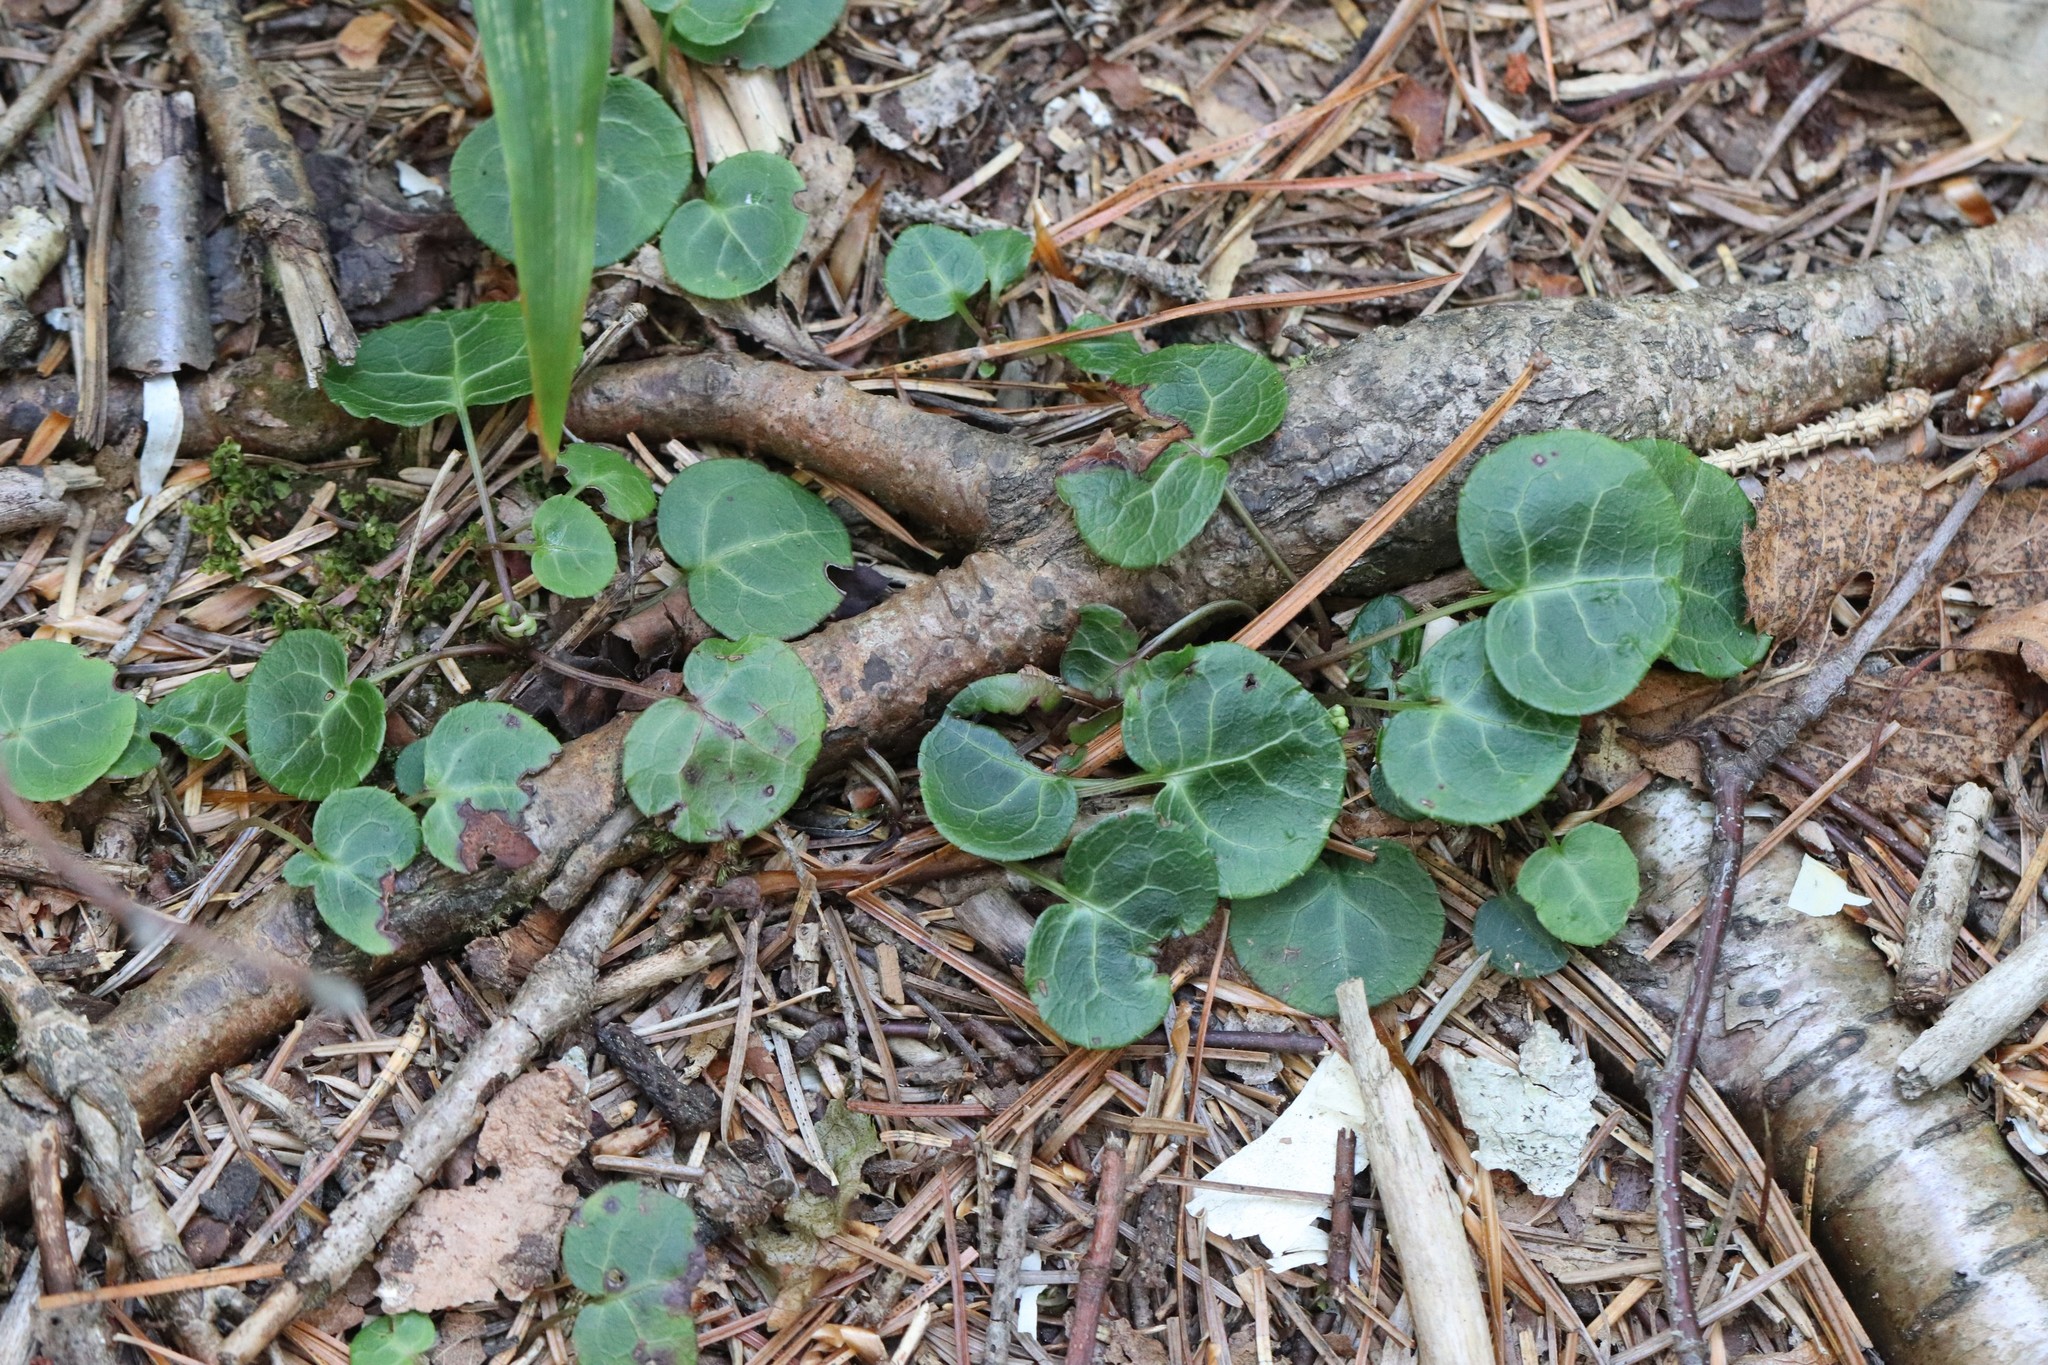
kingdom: Plantae
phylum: Tracheophyta
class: Magnoliopsida
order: Ericales
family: Ericaceae
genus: Pyrola
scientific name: Pyrola renifolia
